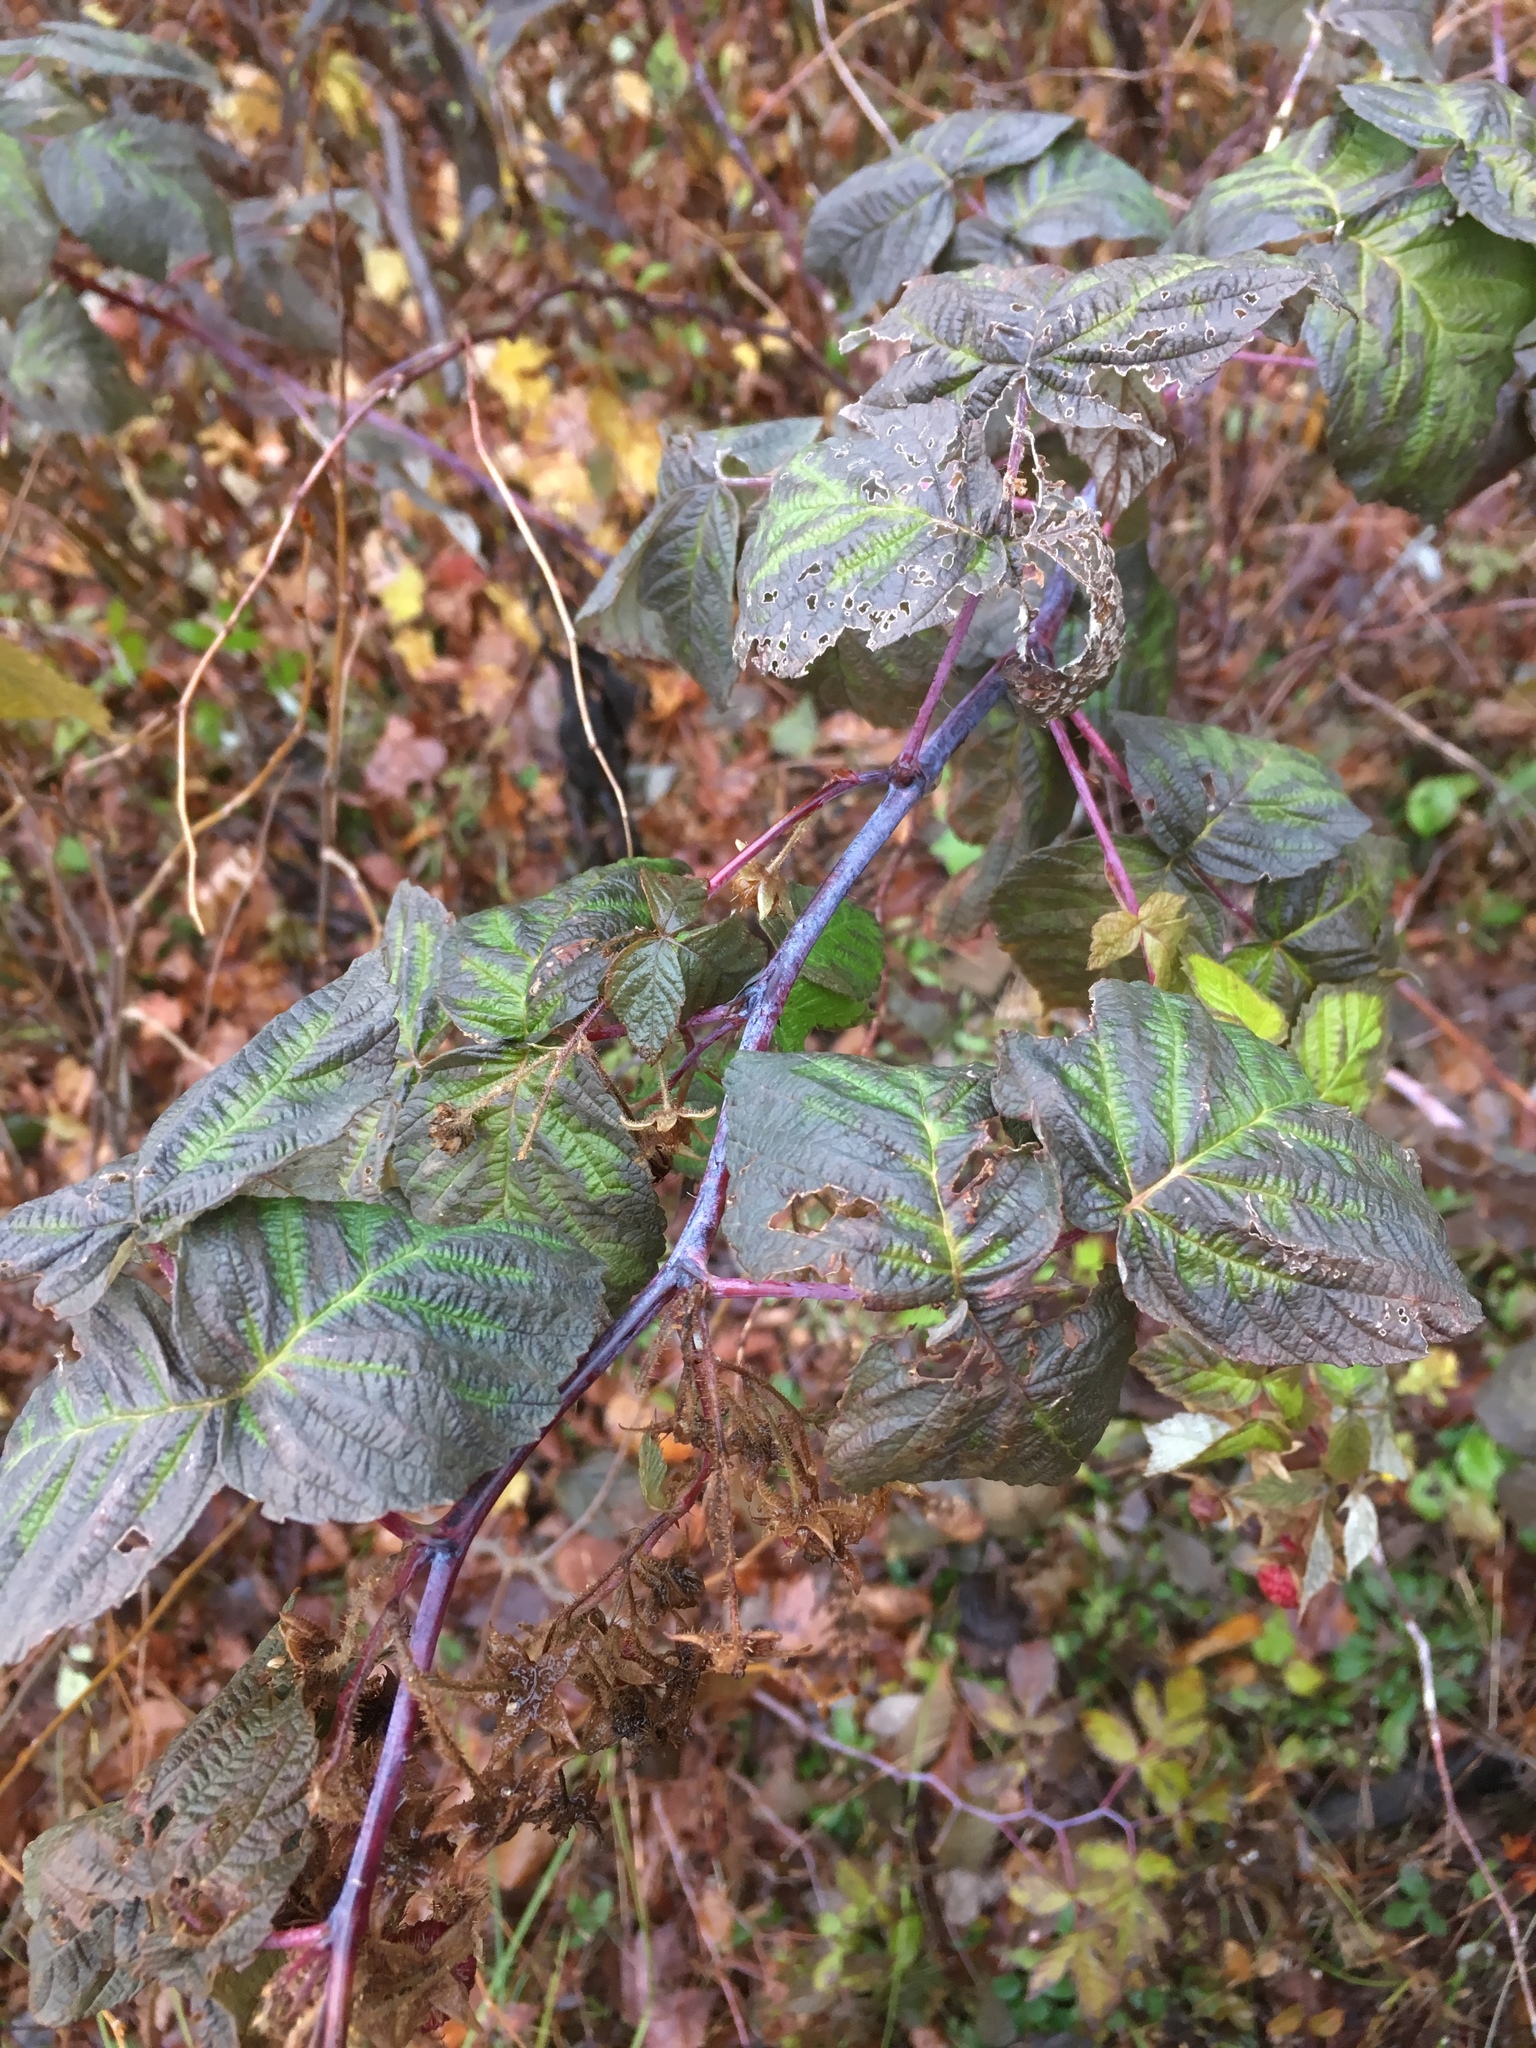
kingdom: Plantae
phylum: Tracheophyta
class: Magnoliopsida
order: Rosales
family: Rosaceae
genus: Rubus
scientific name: Rubus occidentalis
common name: Black raspberry
